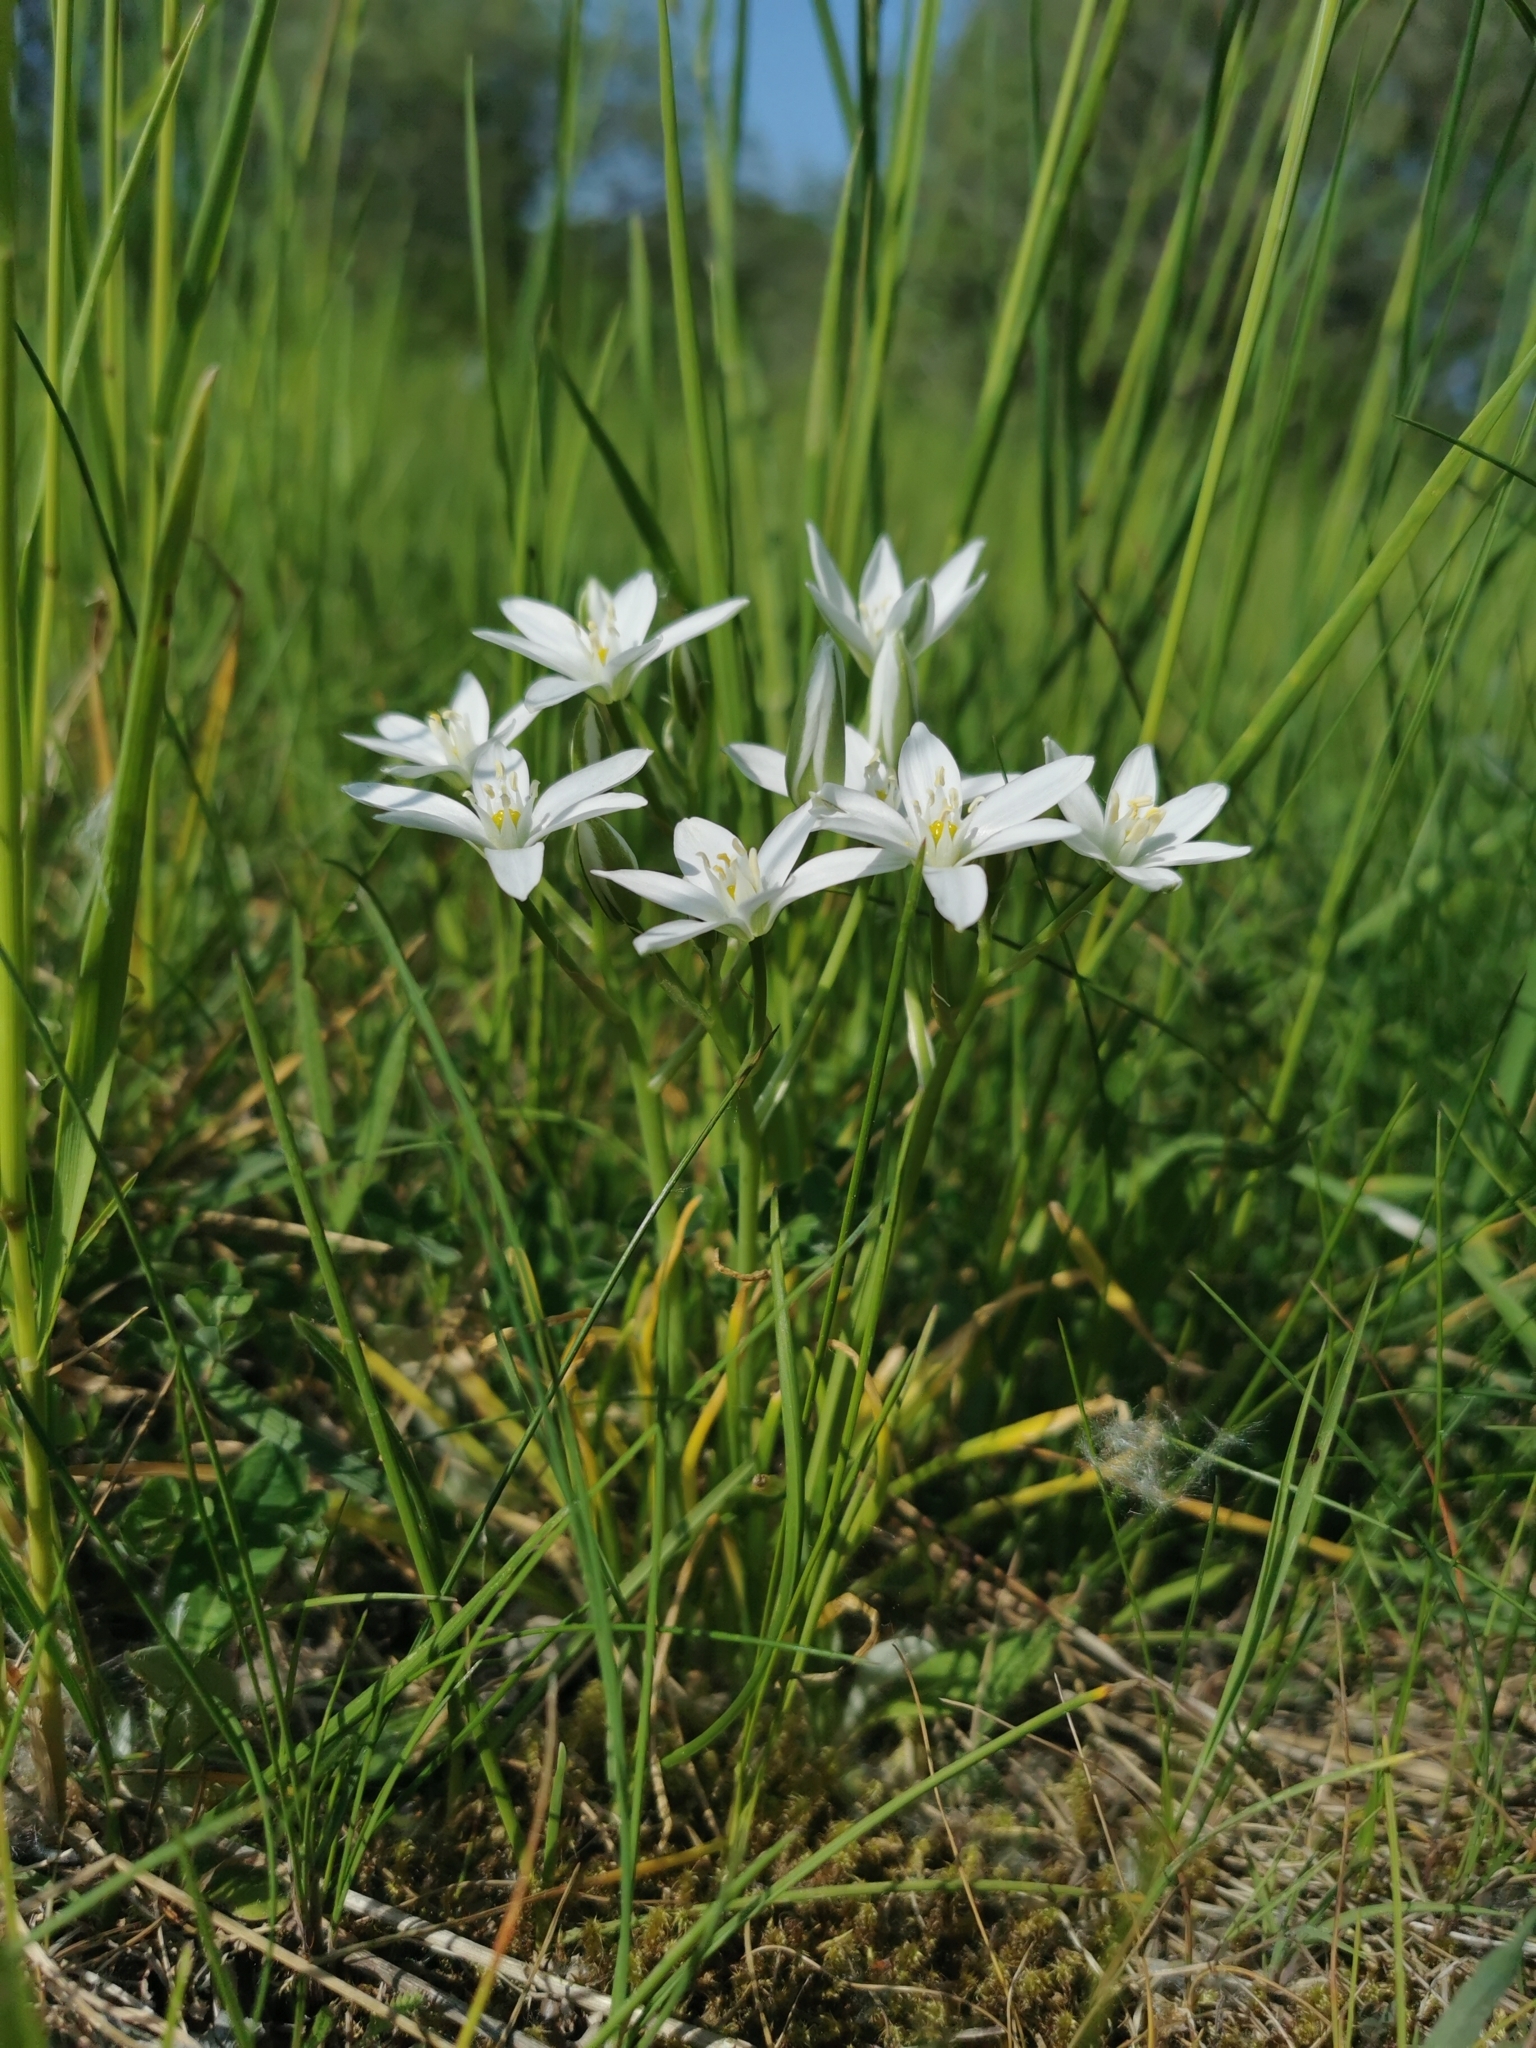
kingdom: Plantae
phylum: Tracheophyta
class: Liliopsida
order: Asparagales
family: Asparagaceae
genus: Ornithogalum
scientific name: Ornithogalum umbellatum
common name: Garden star-of-bethlehem
